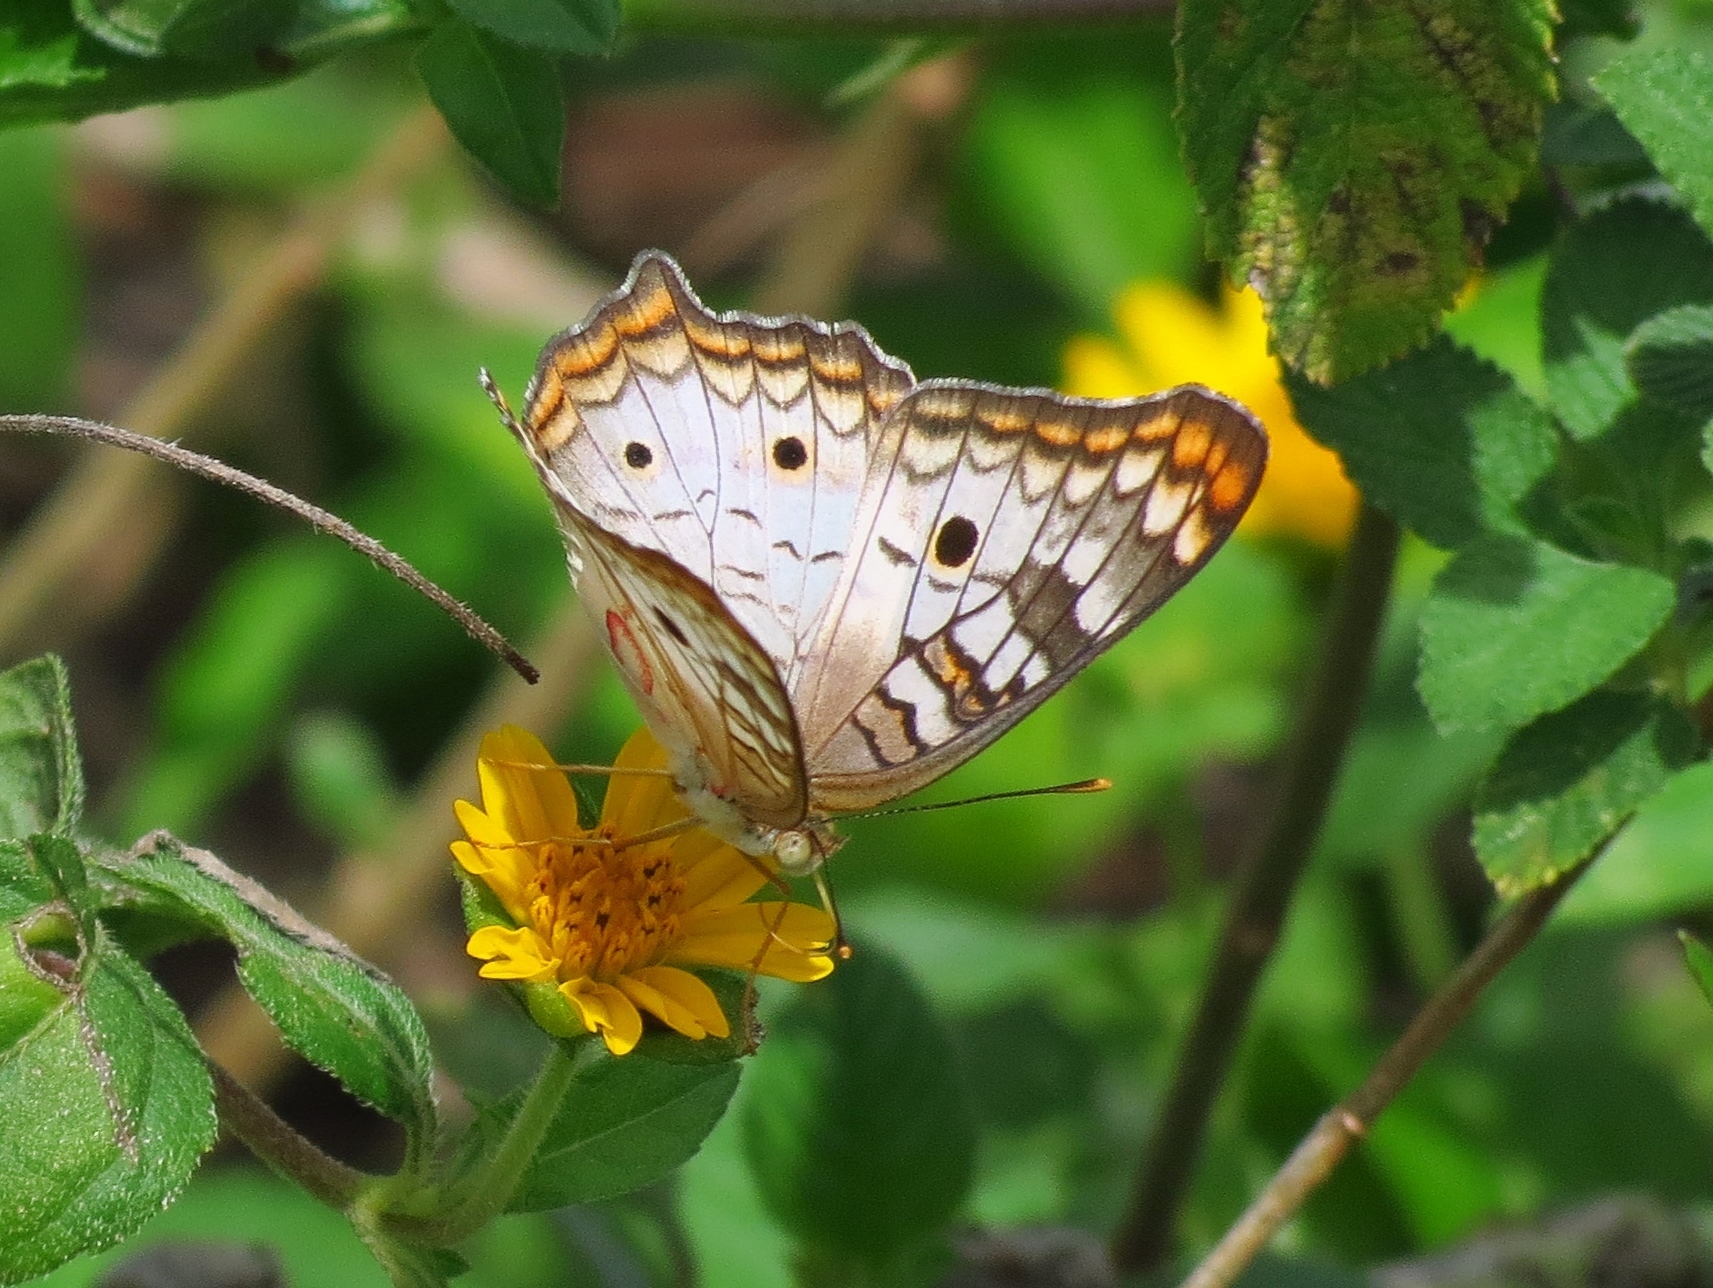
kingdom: Animalia
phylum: Arthropoda
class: Insecta
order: Lepidoptera
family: Nymphalidae
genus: Anartia
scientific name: Anartia jatrophae
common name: White peacock
